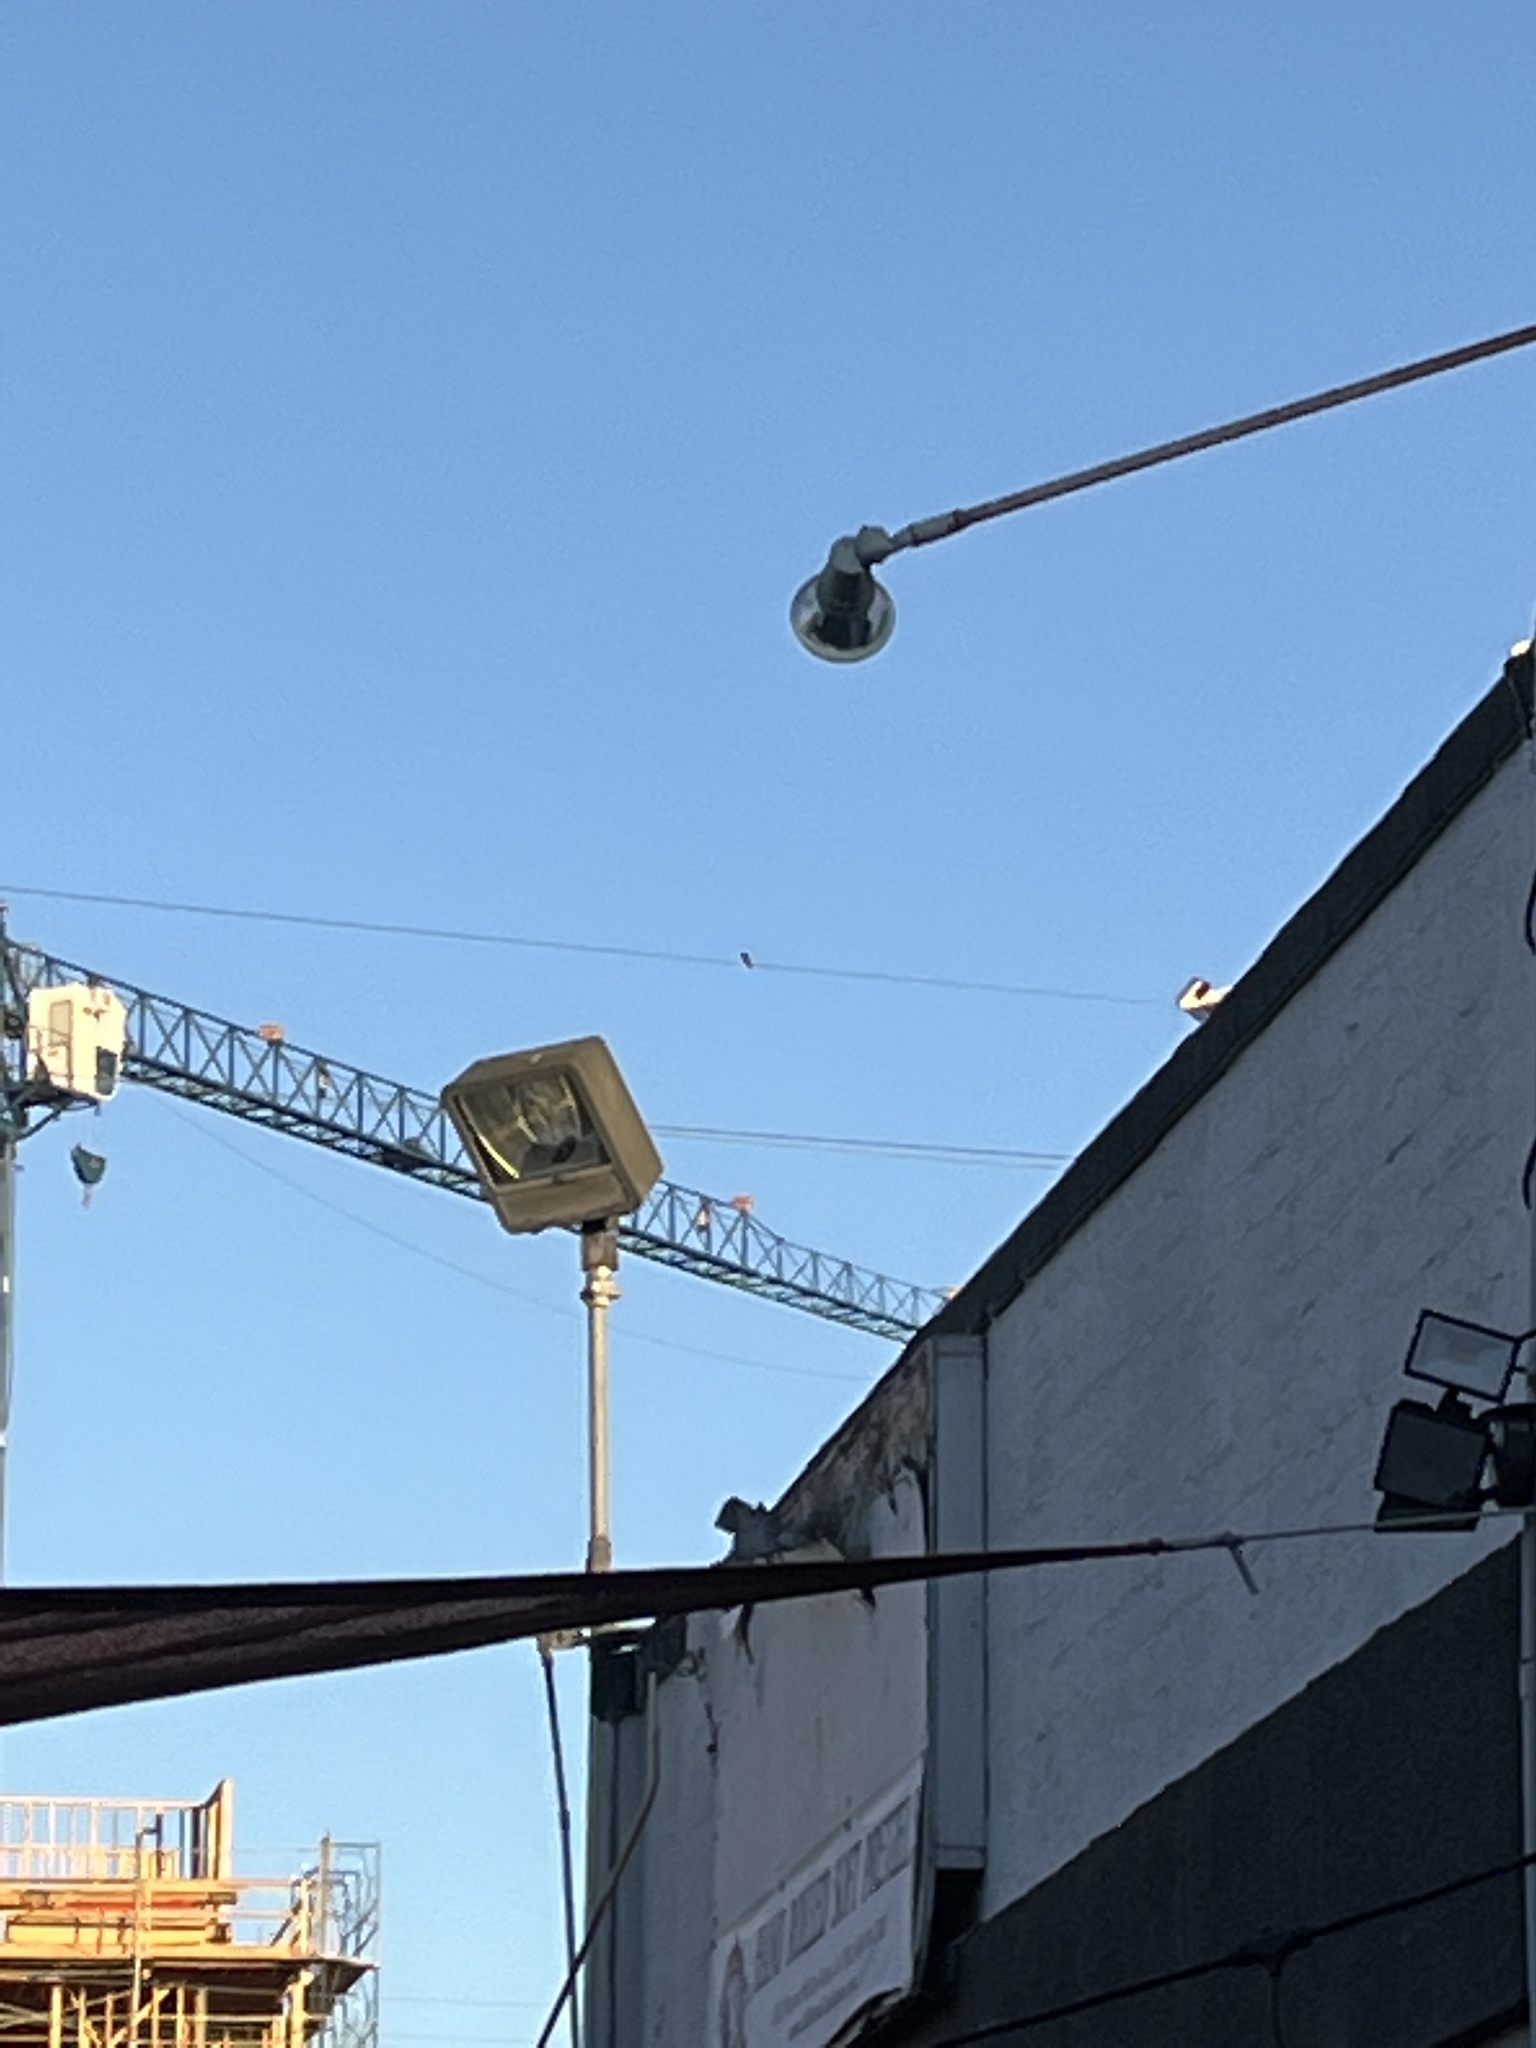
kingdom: Animalia
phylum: Chordata
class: Aves
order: Apodiformes
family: Trochilidae
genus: Calypte
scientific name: Calypte anna
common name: Anna's hummingbird
